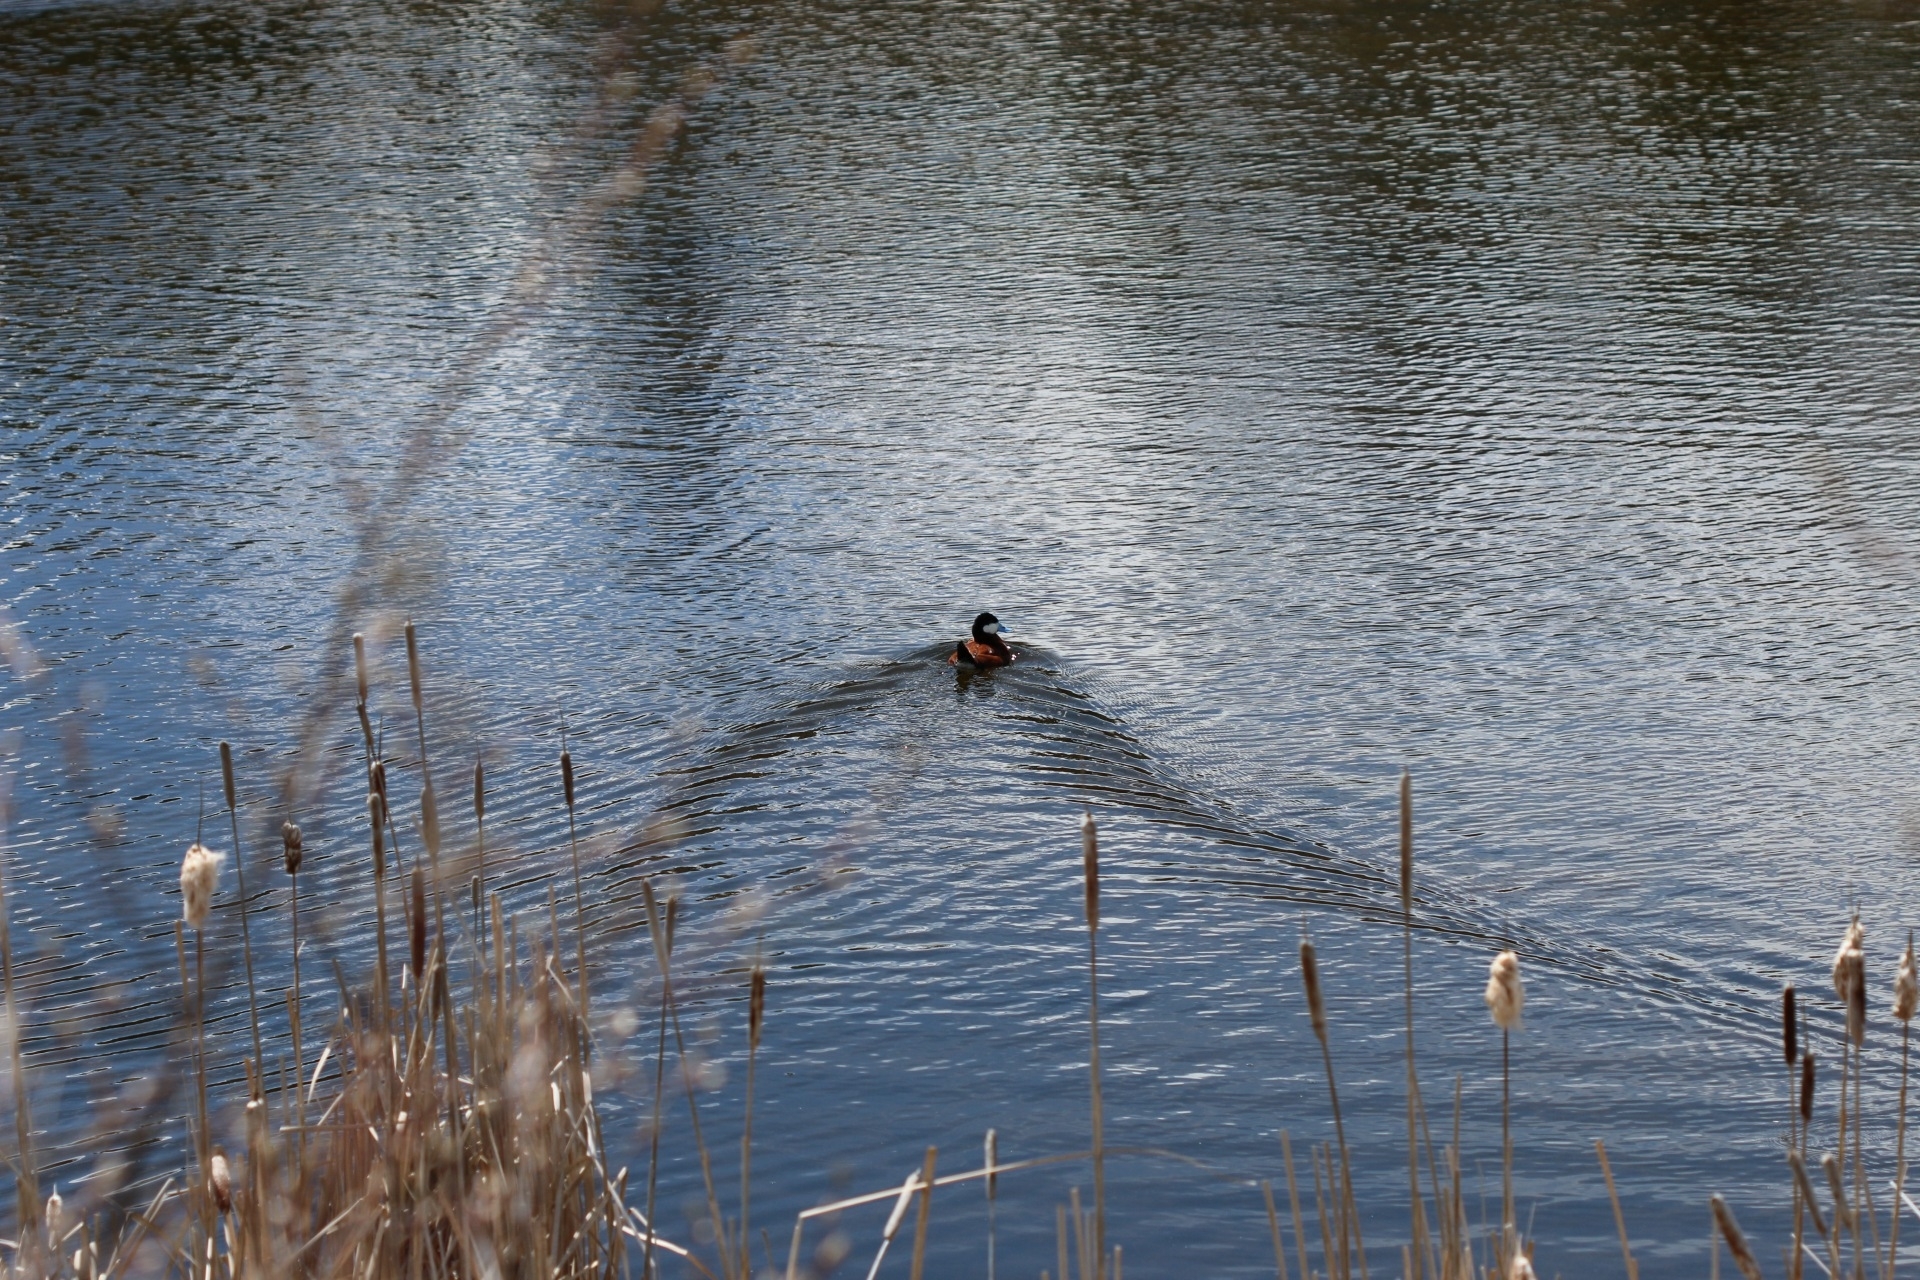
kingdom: Animalia
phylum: Chordata
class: Aves
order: Anseriformes
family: Anatidae
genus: Oxyura
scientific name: Oxyura jamaicensis
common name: Ruddy duck
